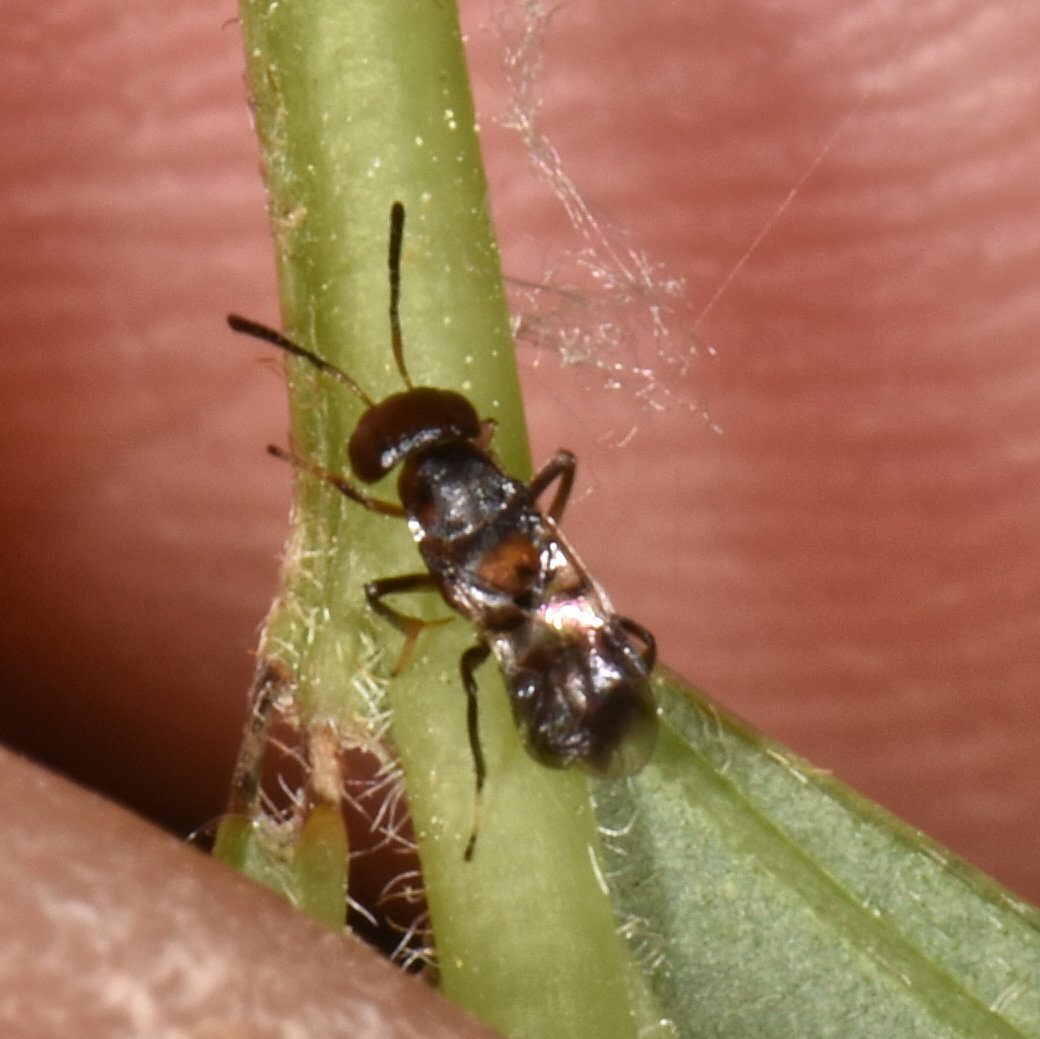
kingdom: Animalia
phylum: Arthropoda
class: Insecta
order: Hymenoptera
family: Encyrtidae
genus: Encyrtus
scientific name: Encyrtus aurantii
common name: Parasitoid wasp
